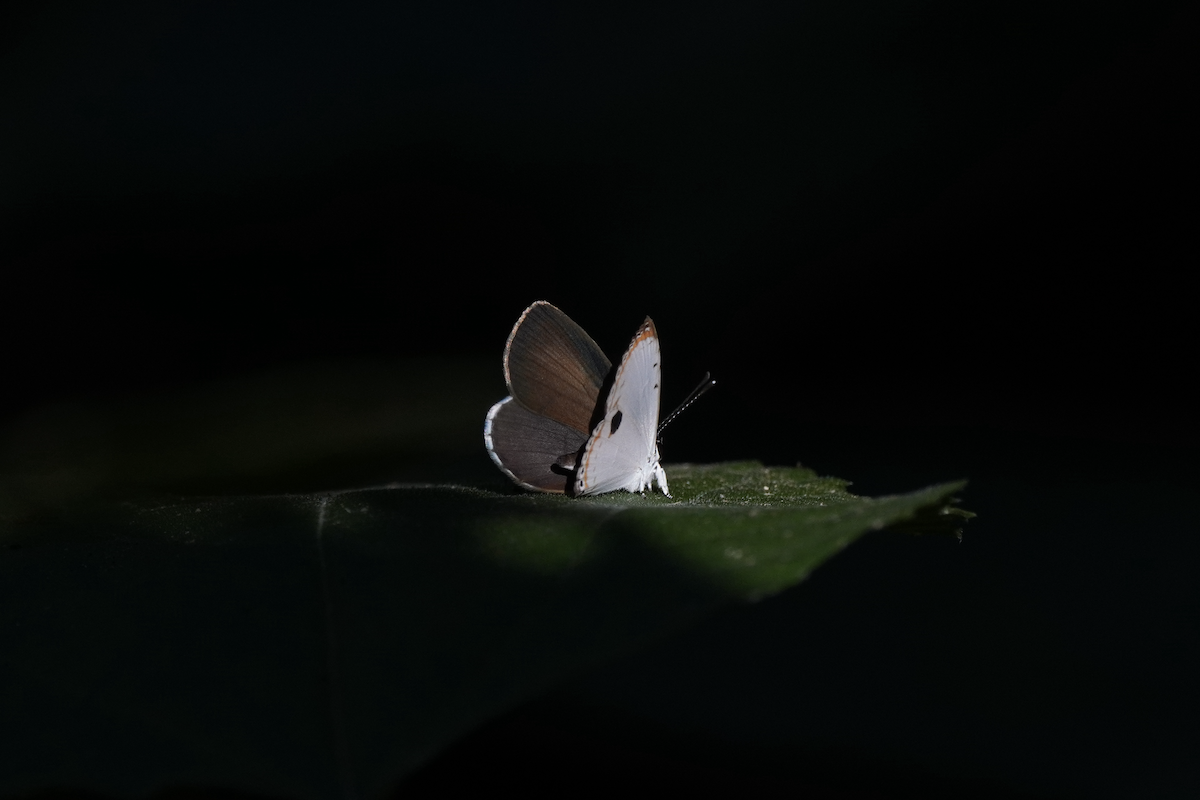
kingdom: Animalia
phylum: Arthropoda
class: Insecta
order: Lepidoptera
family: Lycaenidae
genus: Pithecops
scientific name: Pithecops corvus
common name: Forest quaker
